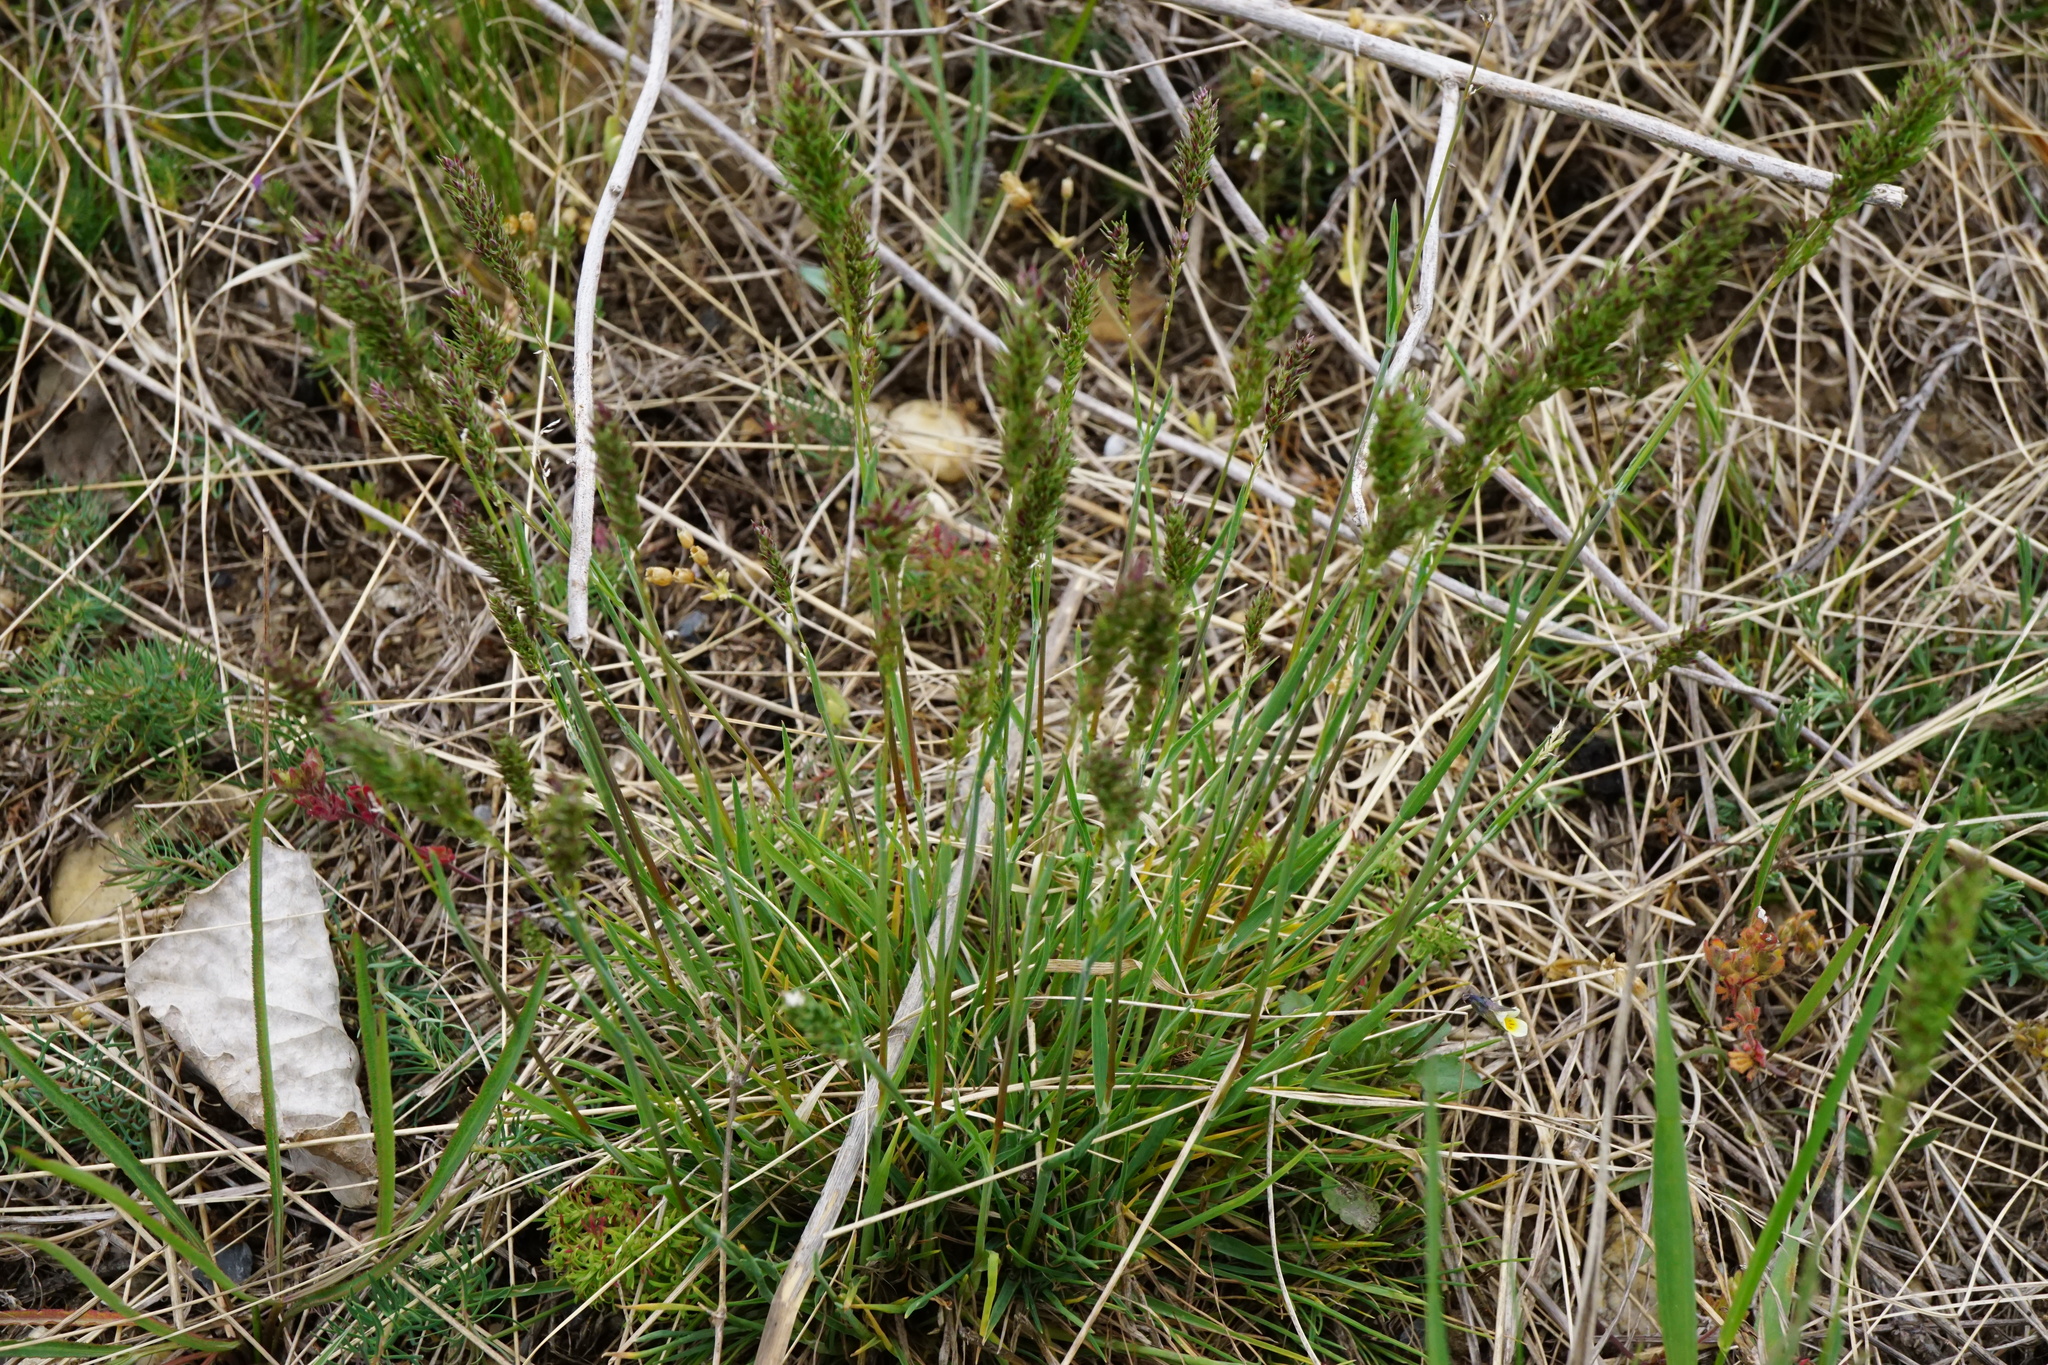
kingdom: Plantae
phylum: Tracheophyta
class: Liliopsida
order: Poales
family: Poaceae
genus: Poa
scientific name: Poa bulbosa
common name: Bulbous bluegrass
